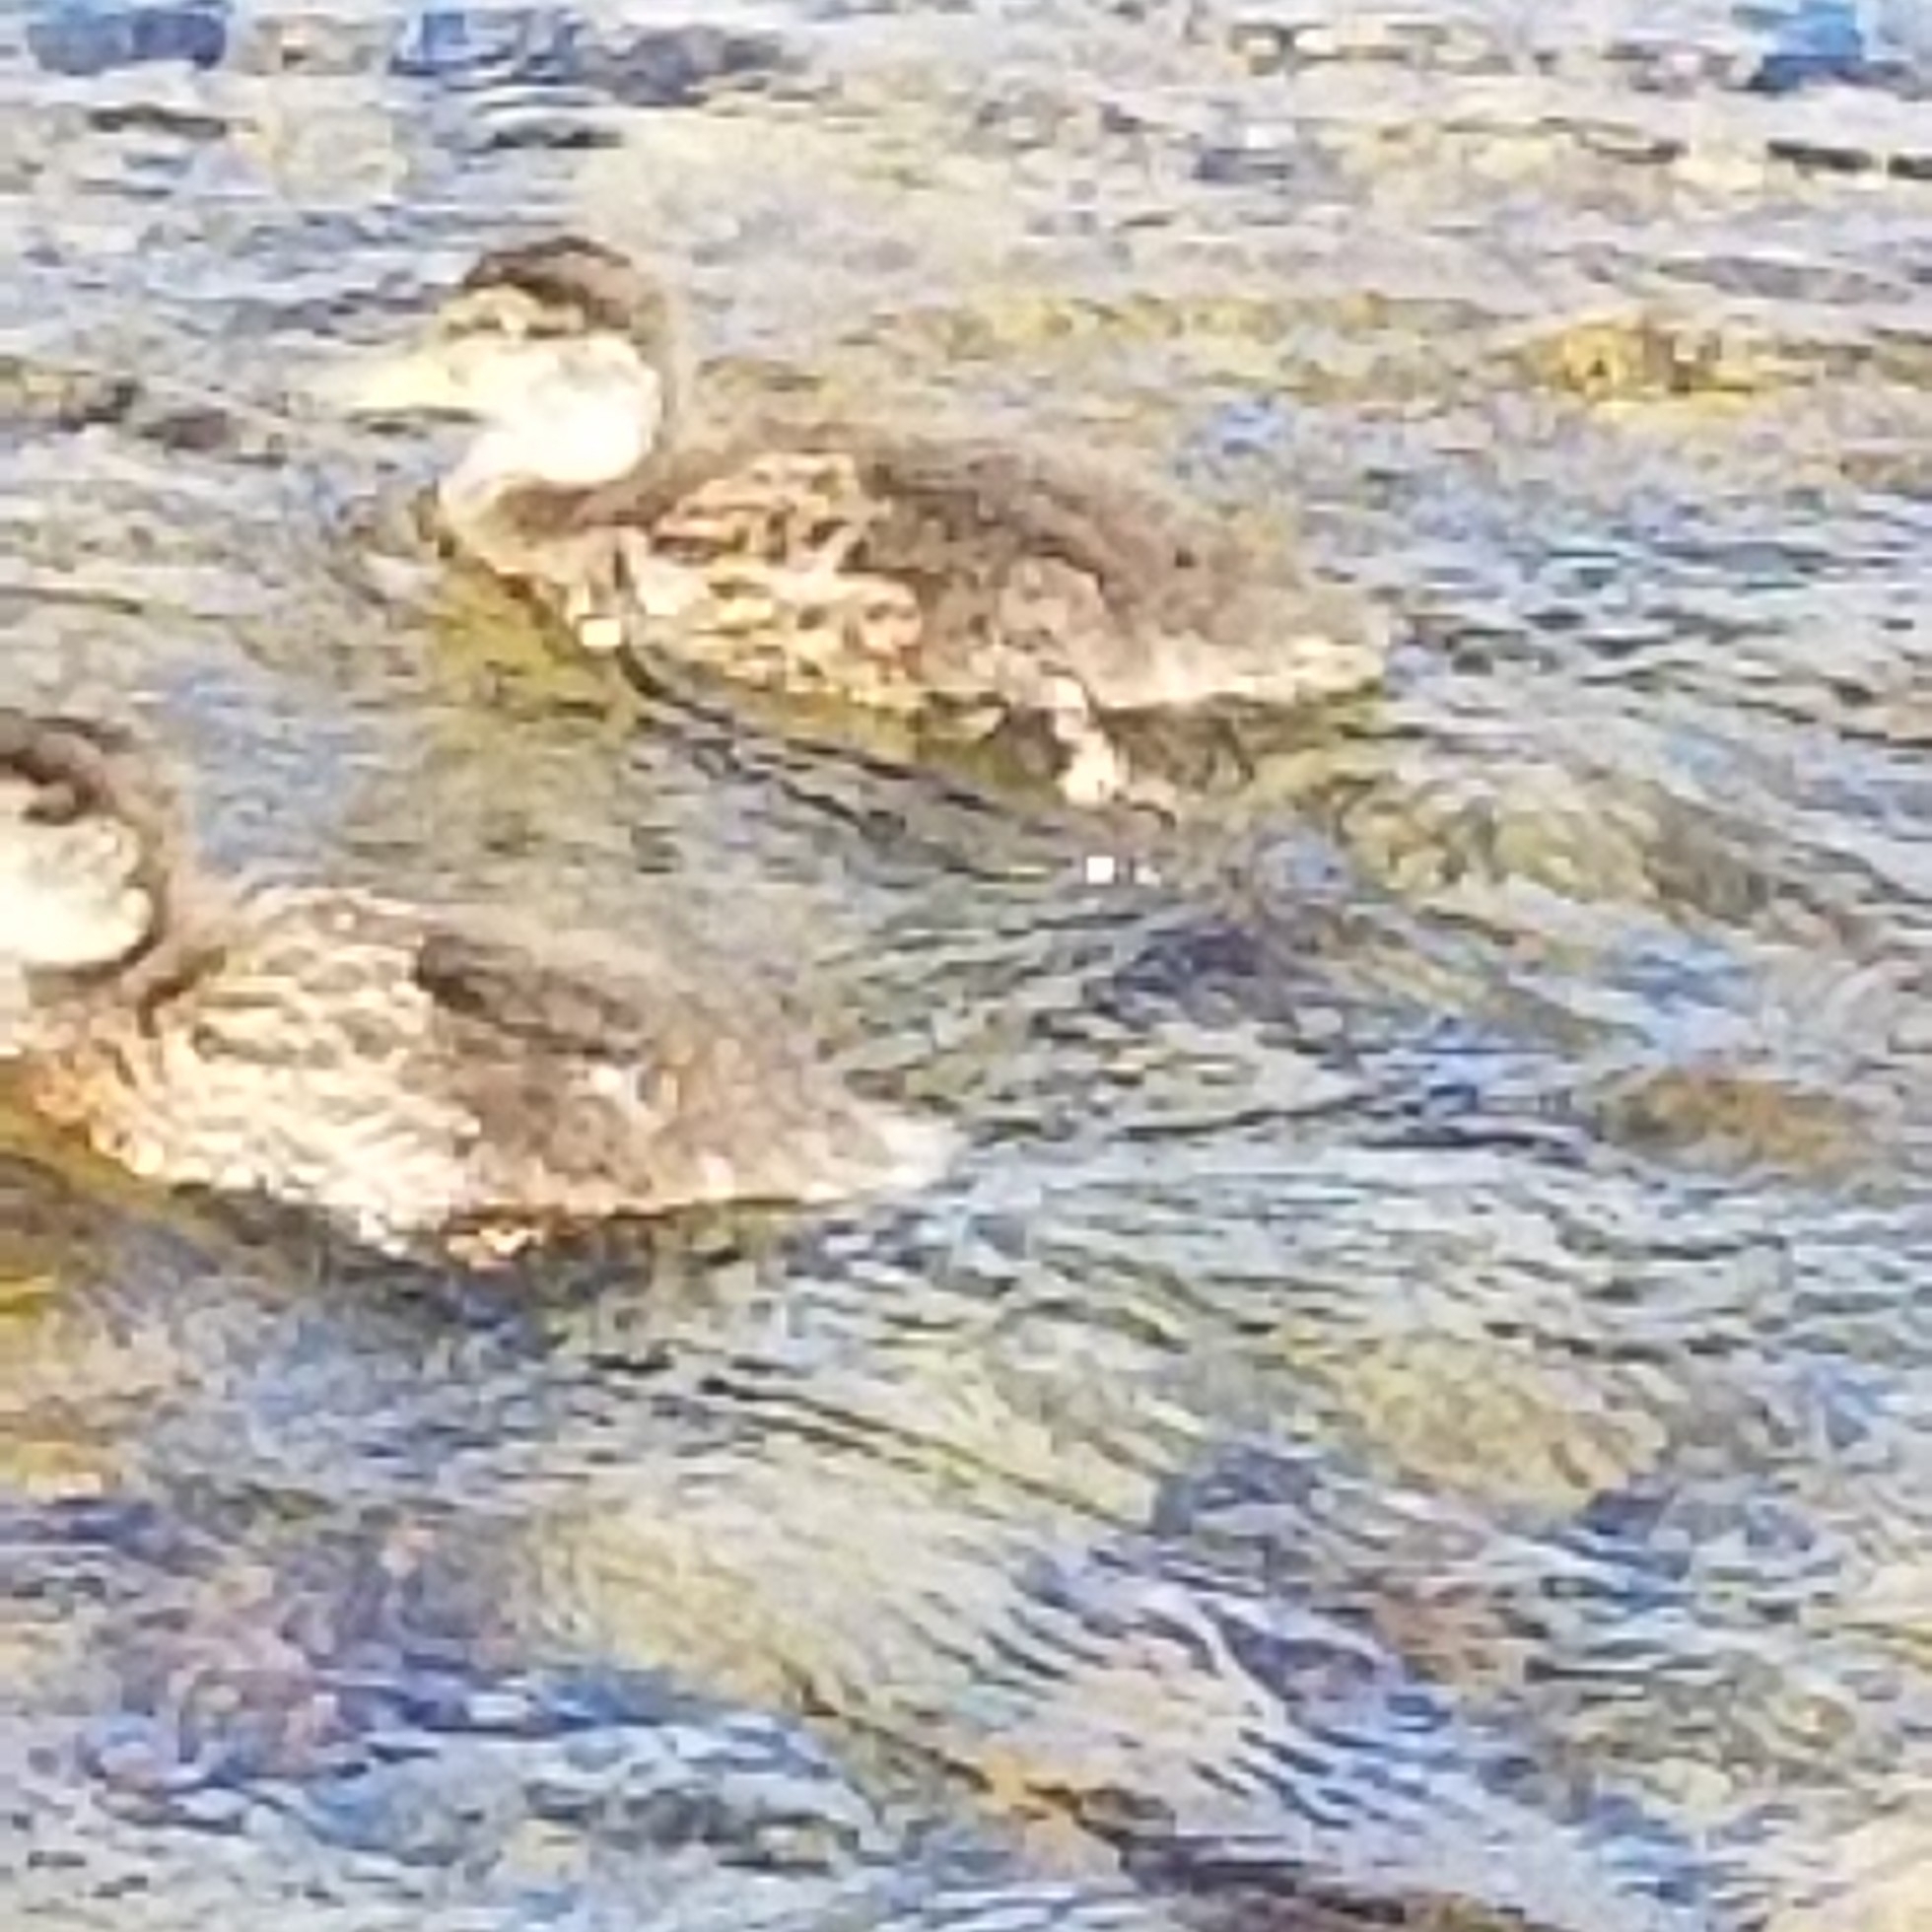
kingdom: Animalia
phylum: Chordata
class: Aves
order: Anseriformes
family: Anatidae
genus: Anas
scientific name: Anas platyrhynchos
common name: Mallard
